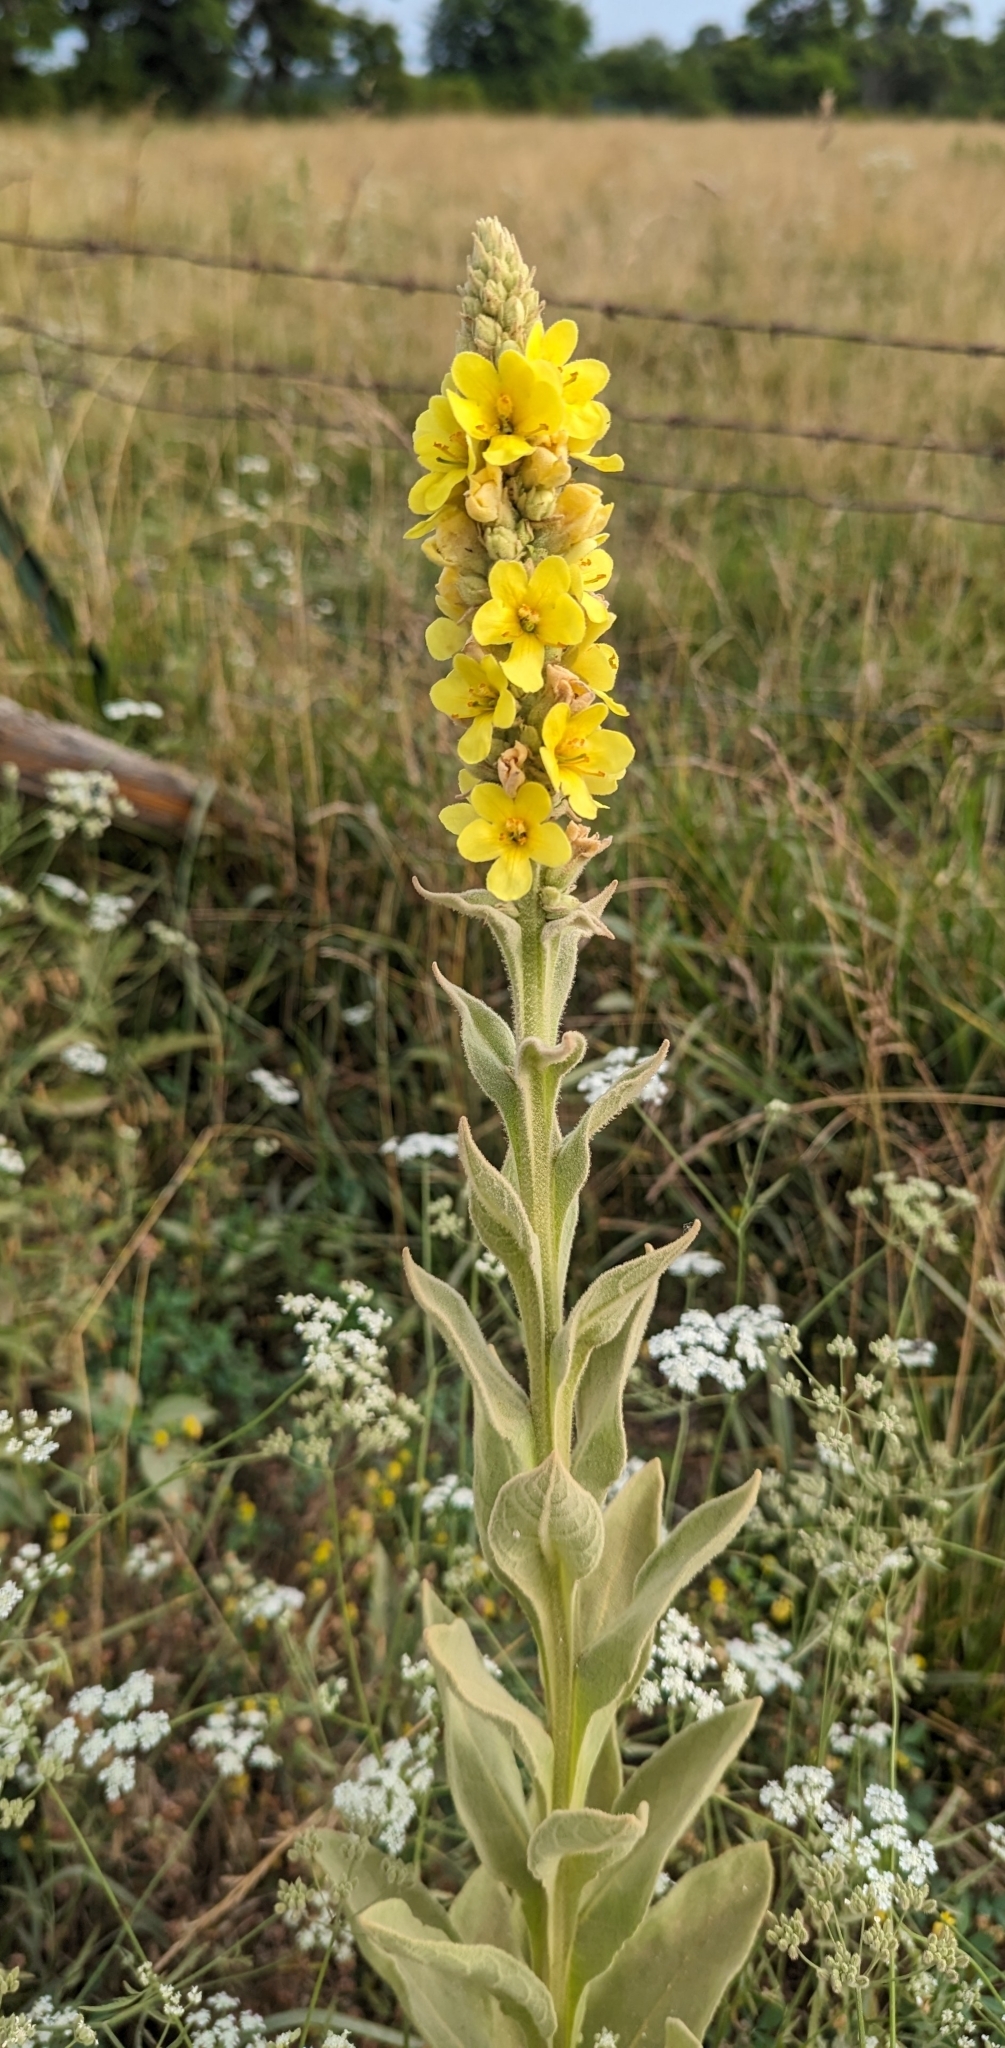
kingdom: Plantae
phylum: Tracheophyta
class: Magnoliopsida
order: Lamiales
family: Scrophulariaceae
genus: Verbascum
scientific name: Verbascum thapsus
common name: Common mullein
